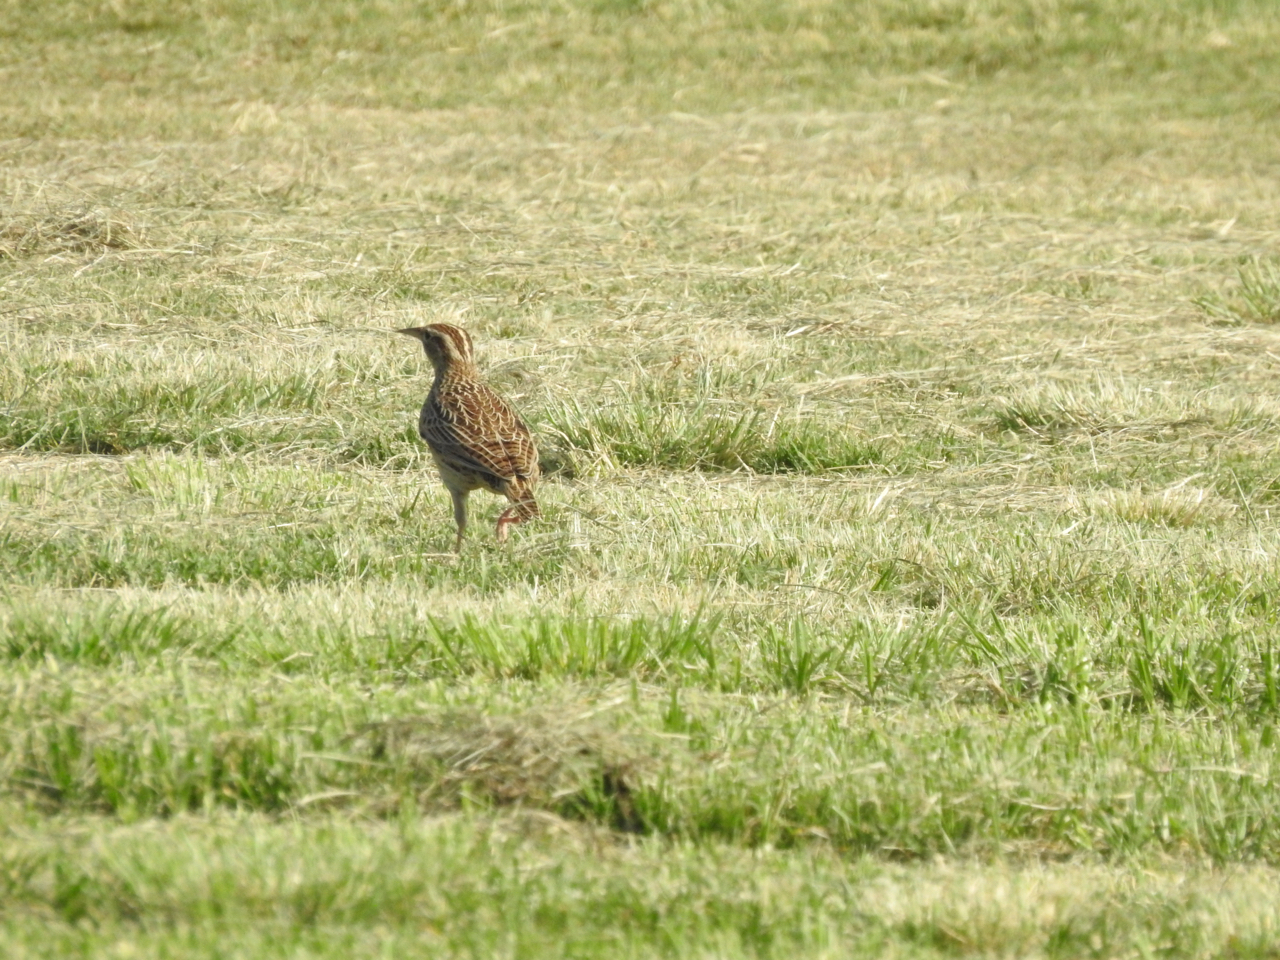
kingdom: Animalia
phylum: Chordata
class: Aves
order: Passeriformes
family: Icteridae
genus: Sturnella
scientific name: Sturnella neglecta
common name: Western meadowlark
